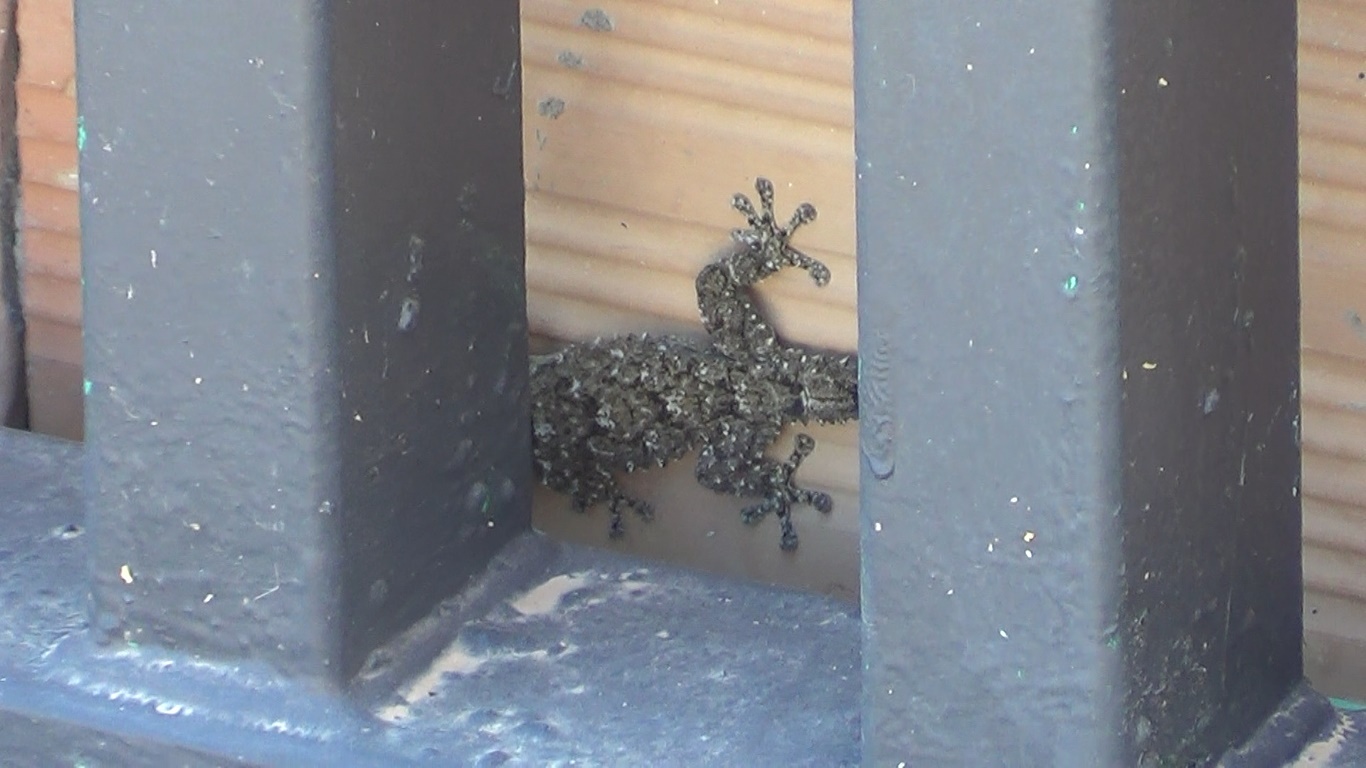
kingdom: Animalia
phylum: Chordata
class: Squamata
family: Phyllodactylidae
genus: Tarentola
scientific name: Tarentola mauritanica
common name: Moorish gecko
